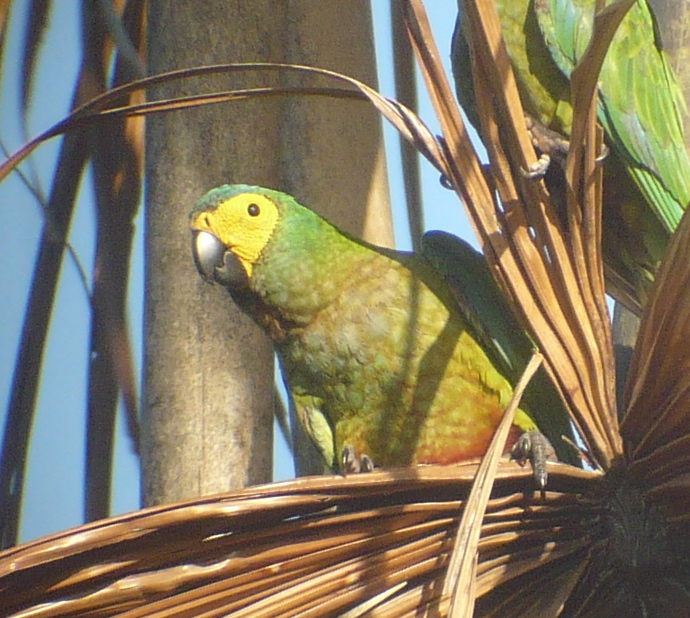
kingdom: Animalia
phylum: Chordata
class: Aves
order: Psittaciformes
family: Psittacidae
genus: Orthopsittaca
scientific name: Orthopsittaca manilata
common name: Red-bellied macaw
